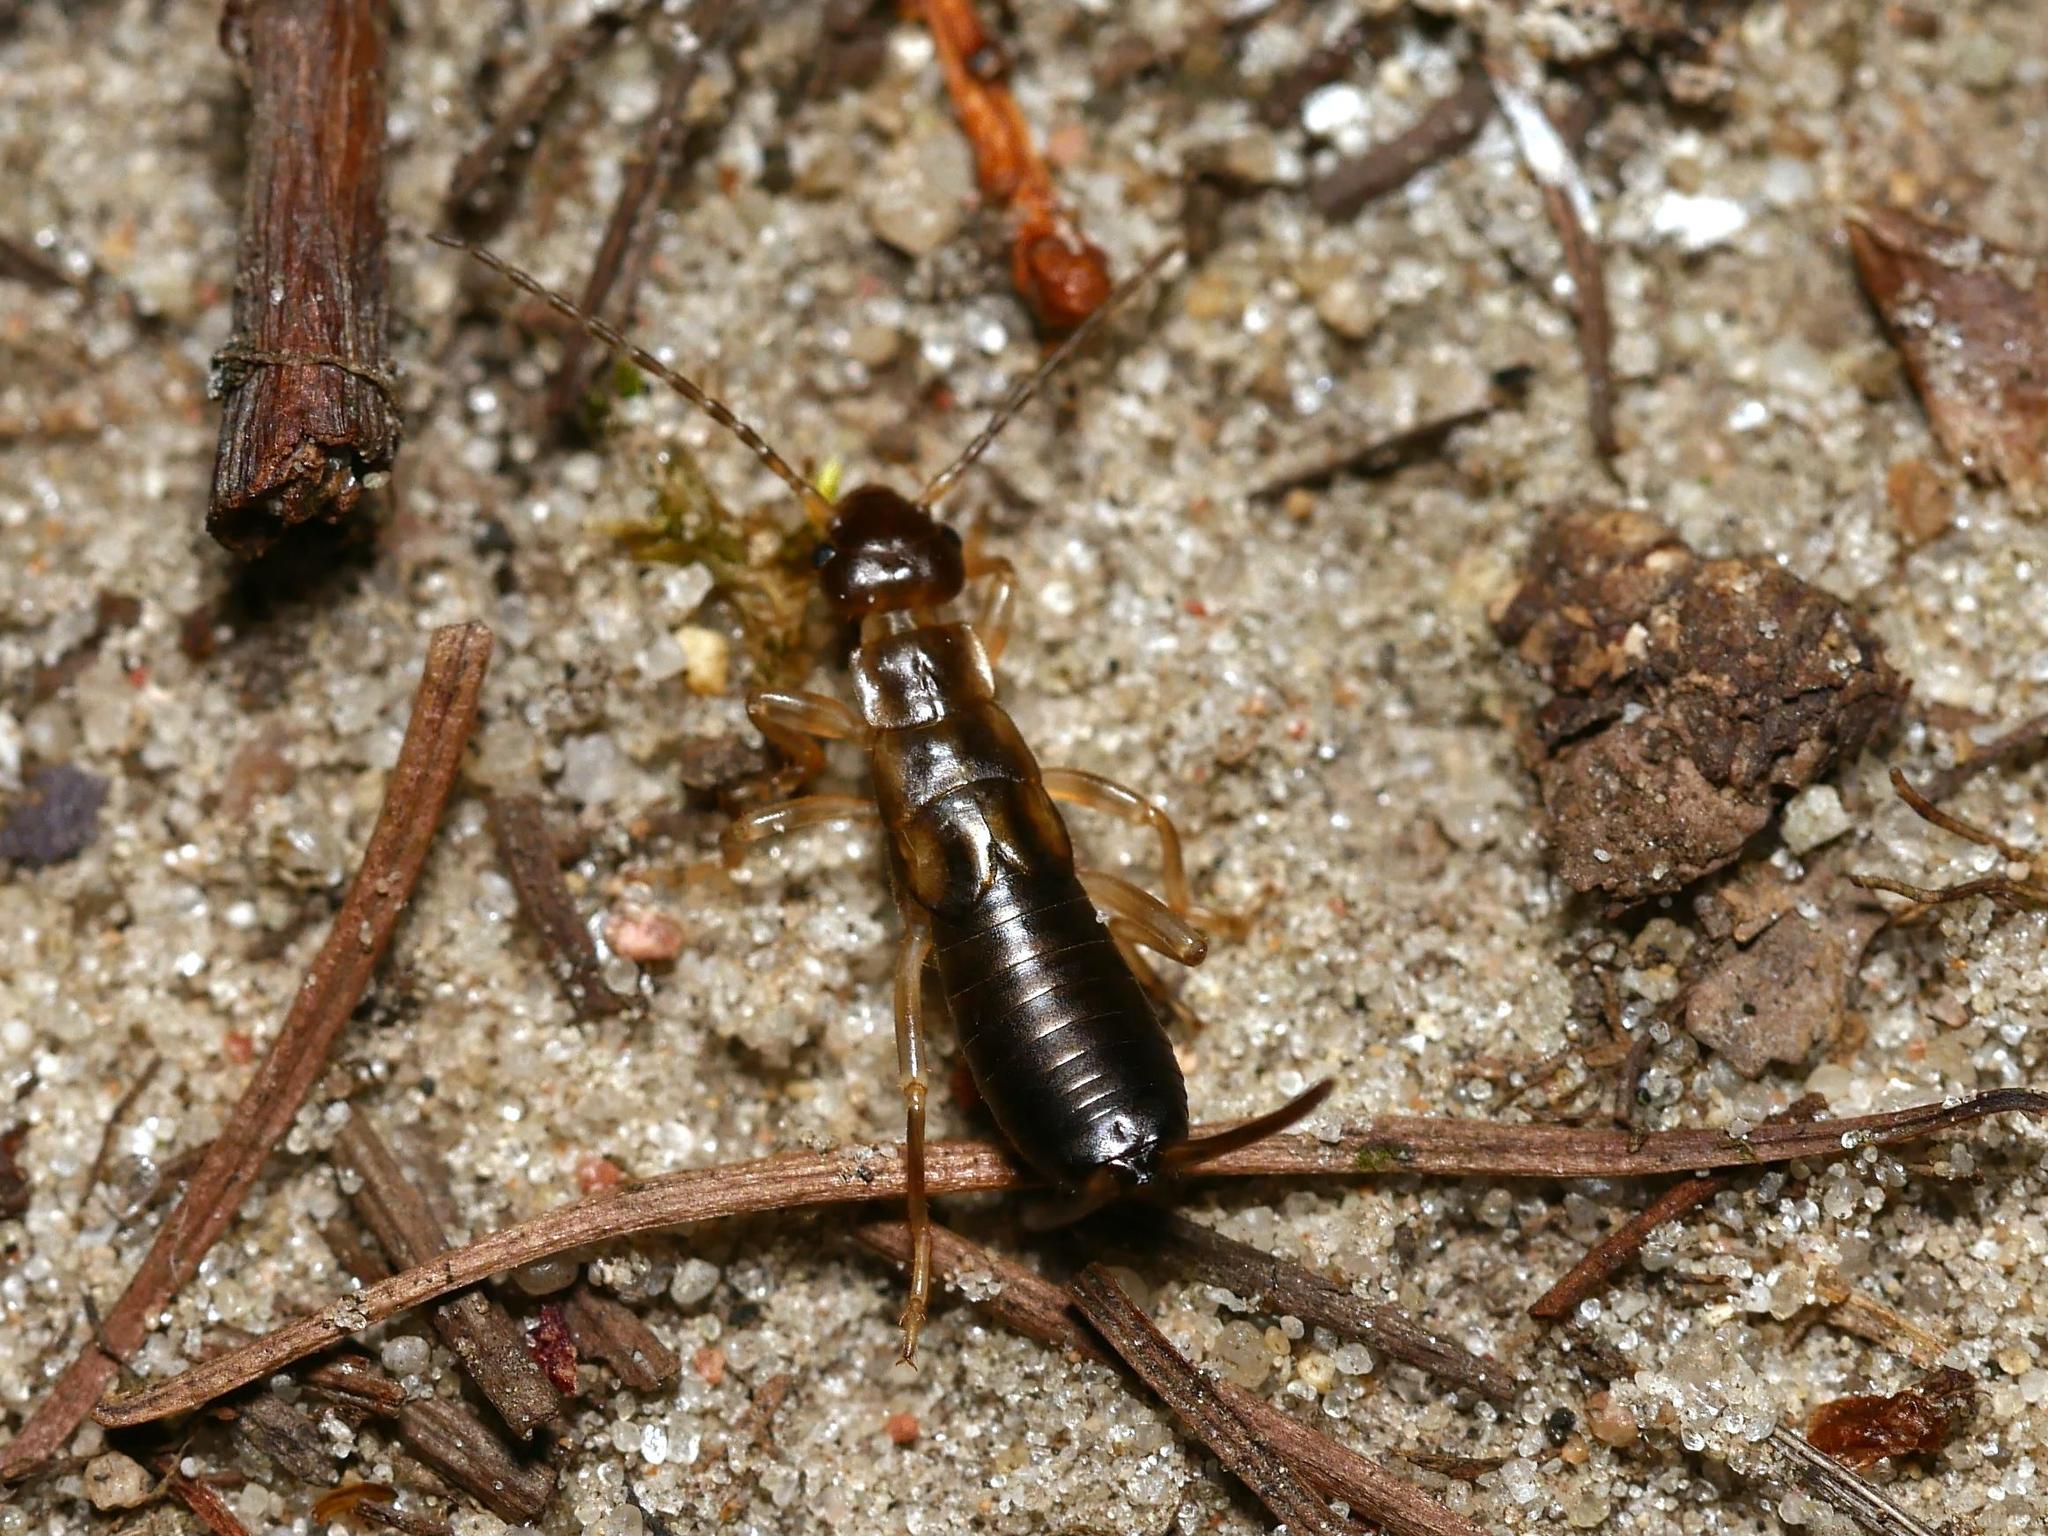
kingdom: Animalia
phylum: Arthropoda
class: Insecta
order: Dermaptera
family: Forficulidae
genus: Forficula
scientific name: Forficula
